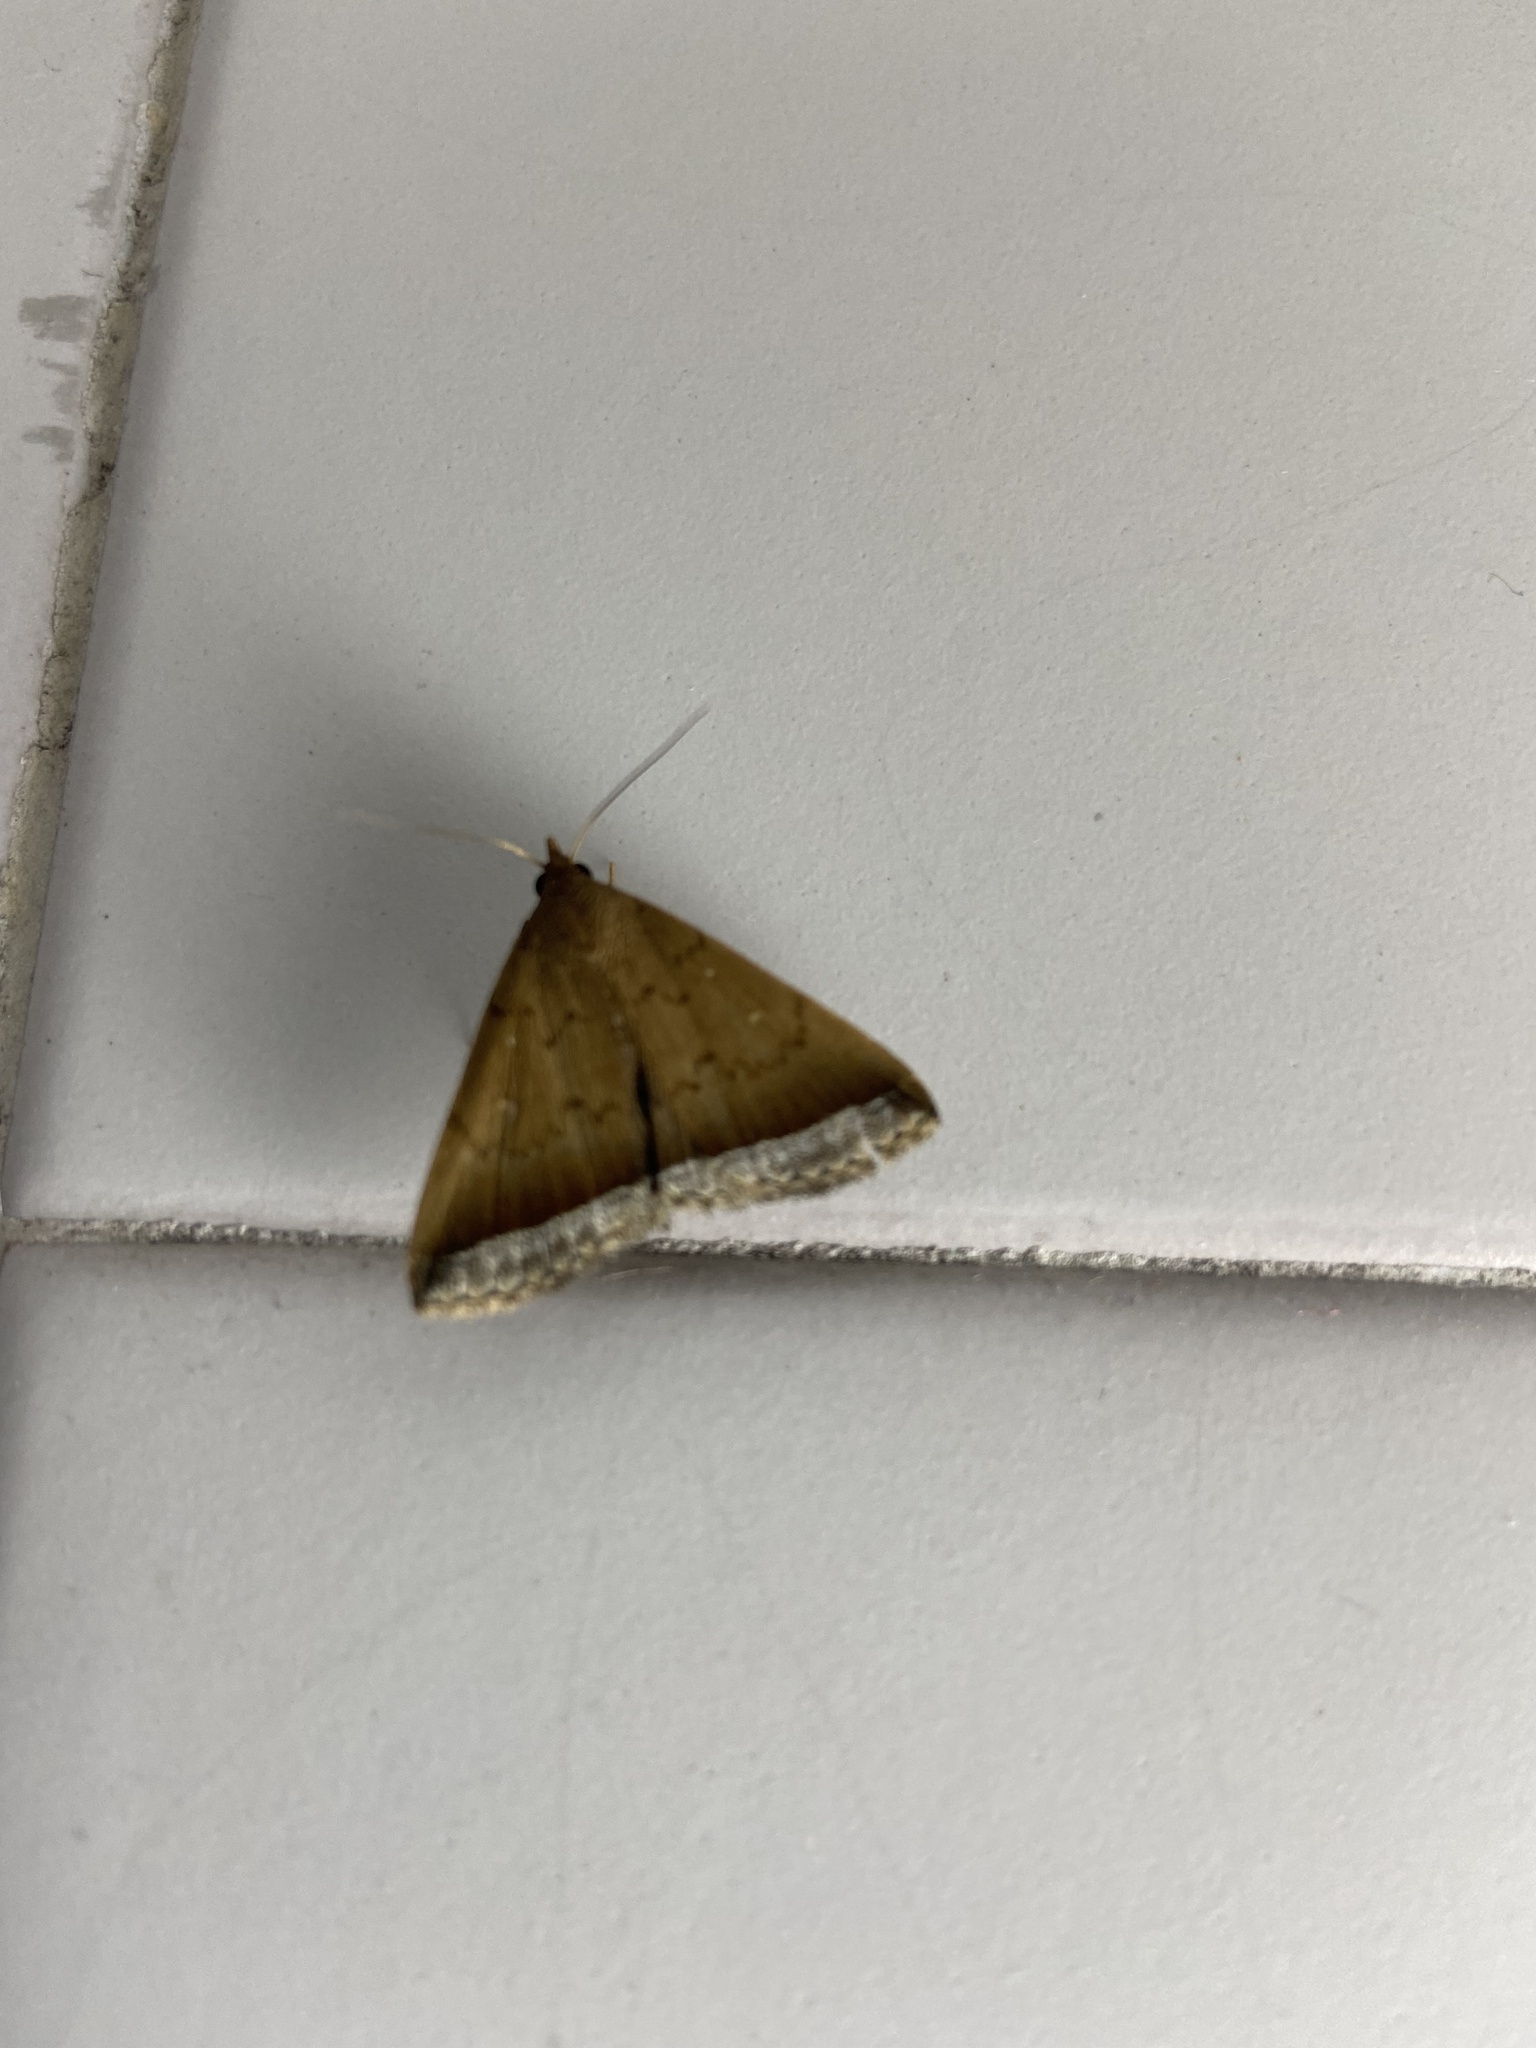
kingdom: Animalia
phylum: Arthropoda
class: Insecta
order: Lepidoptera
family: Erebidae
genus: Mamerthes
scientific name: Mamerthes orionalis
